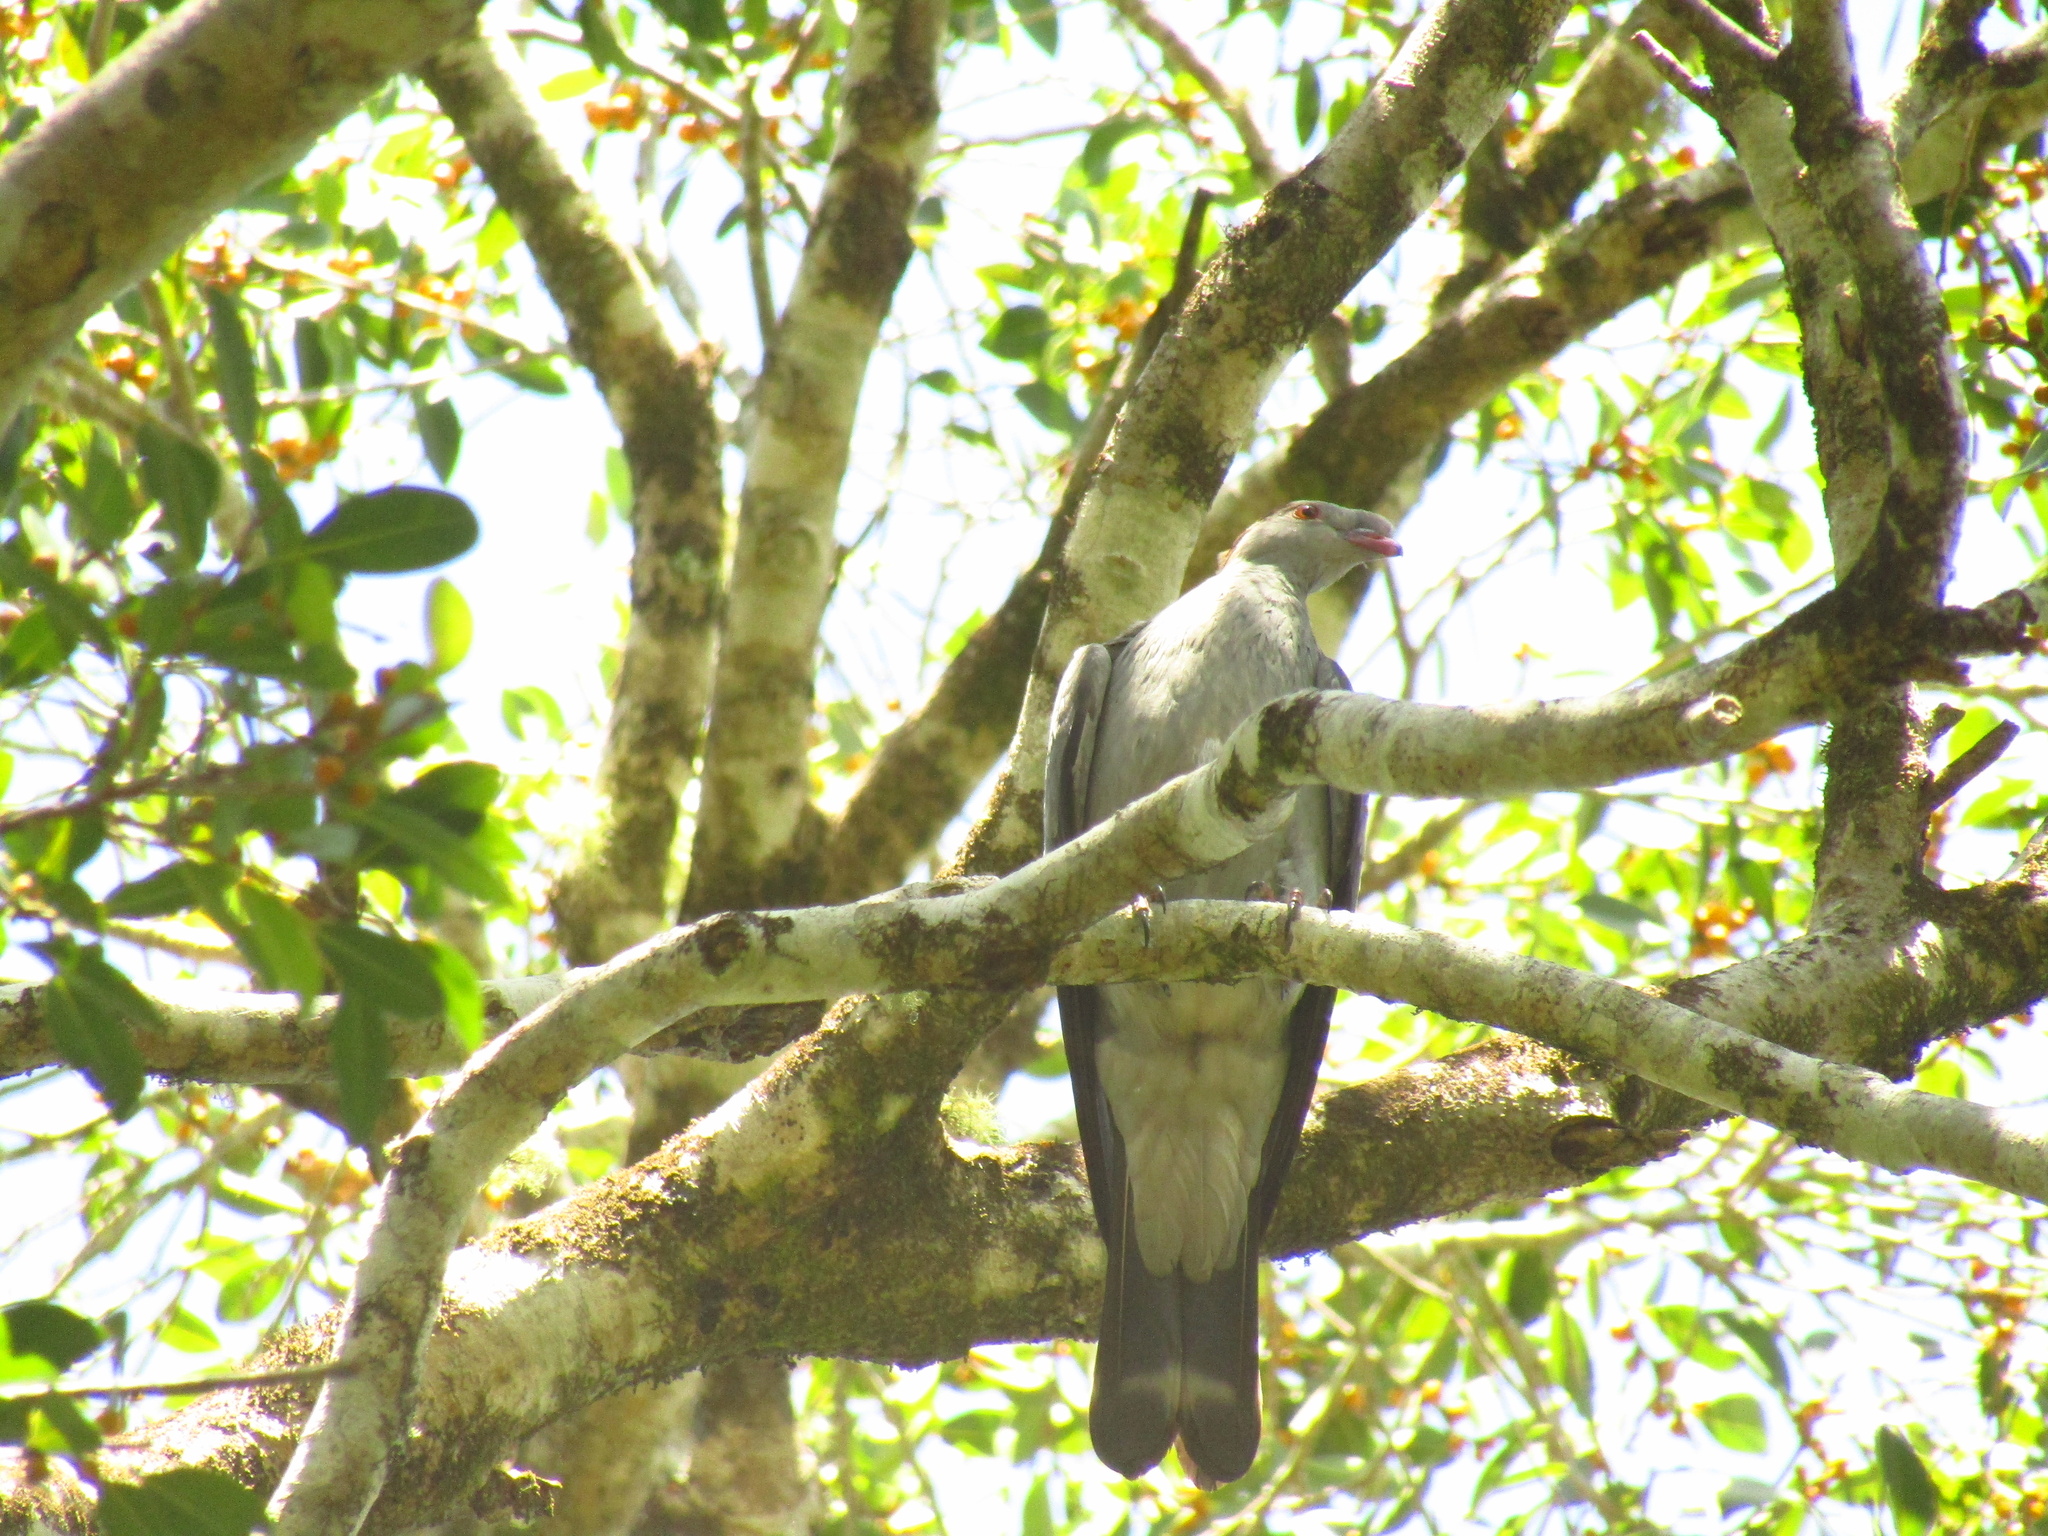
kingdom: Animalia
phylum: Chordata
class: Aves
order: Columbiformes
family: Columbidae
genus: Lopholaimus
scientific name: Lopholaimus antarcticus
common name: Topknot pigeon
